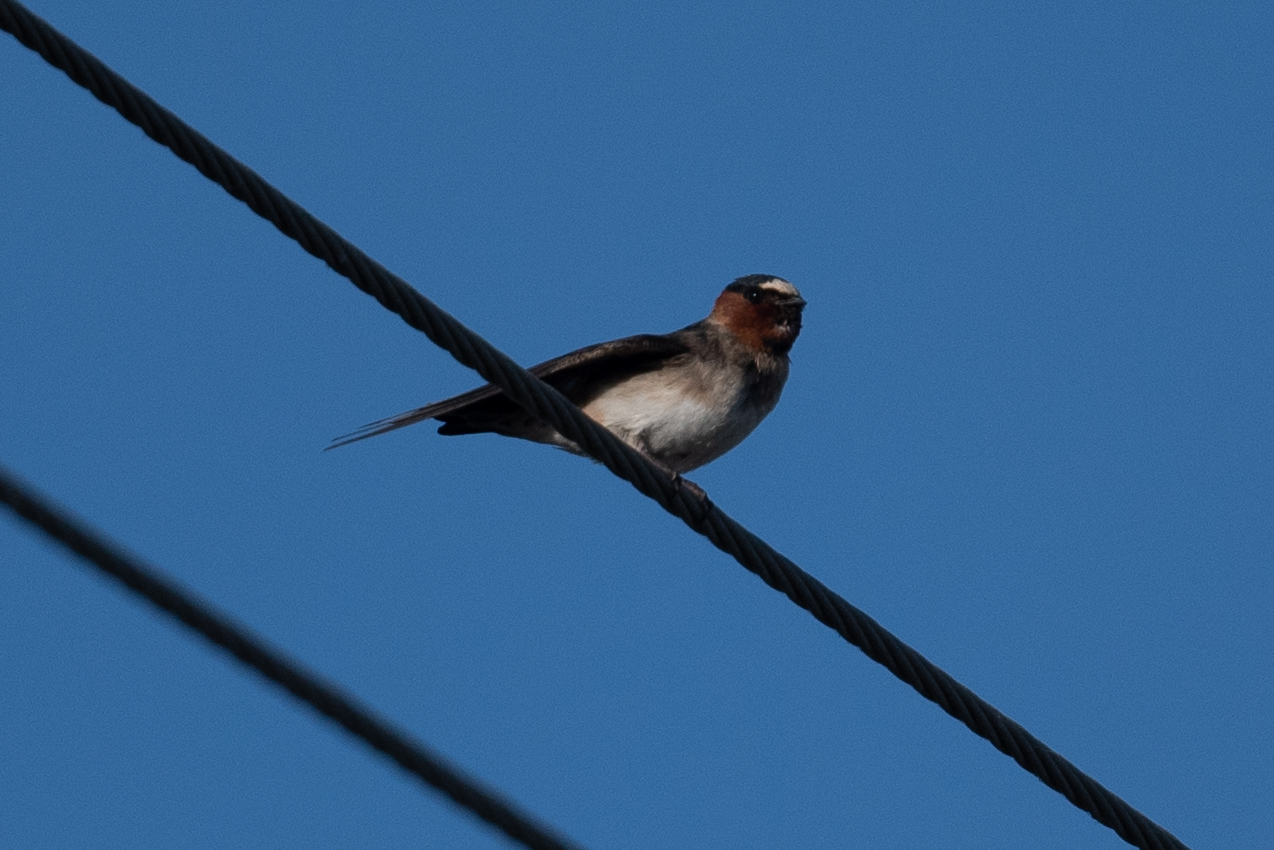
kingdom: Animalia
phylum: Chordata
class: Aves
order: Passeriformes
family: Hirundinidae
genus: Petrochelidon
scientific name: Petrochelidon pyrrhonota
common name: American cliff swallow
